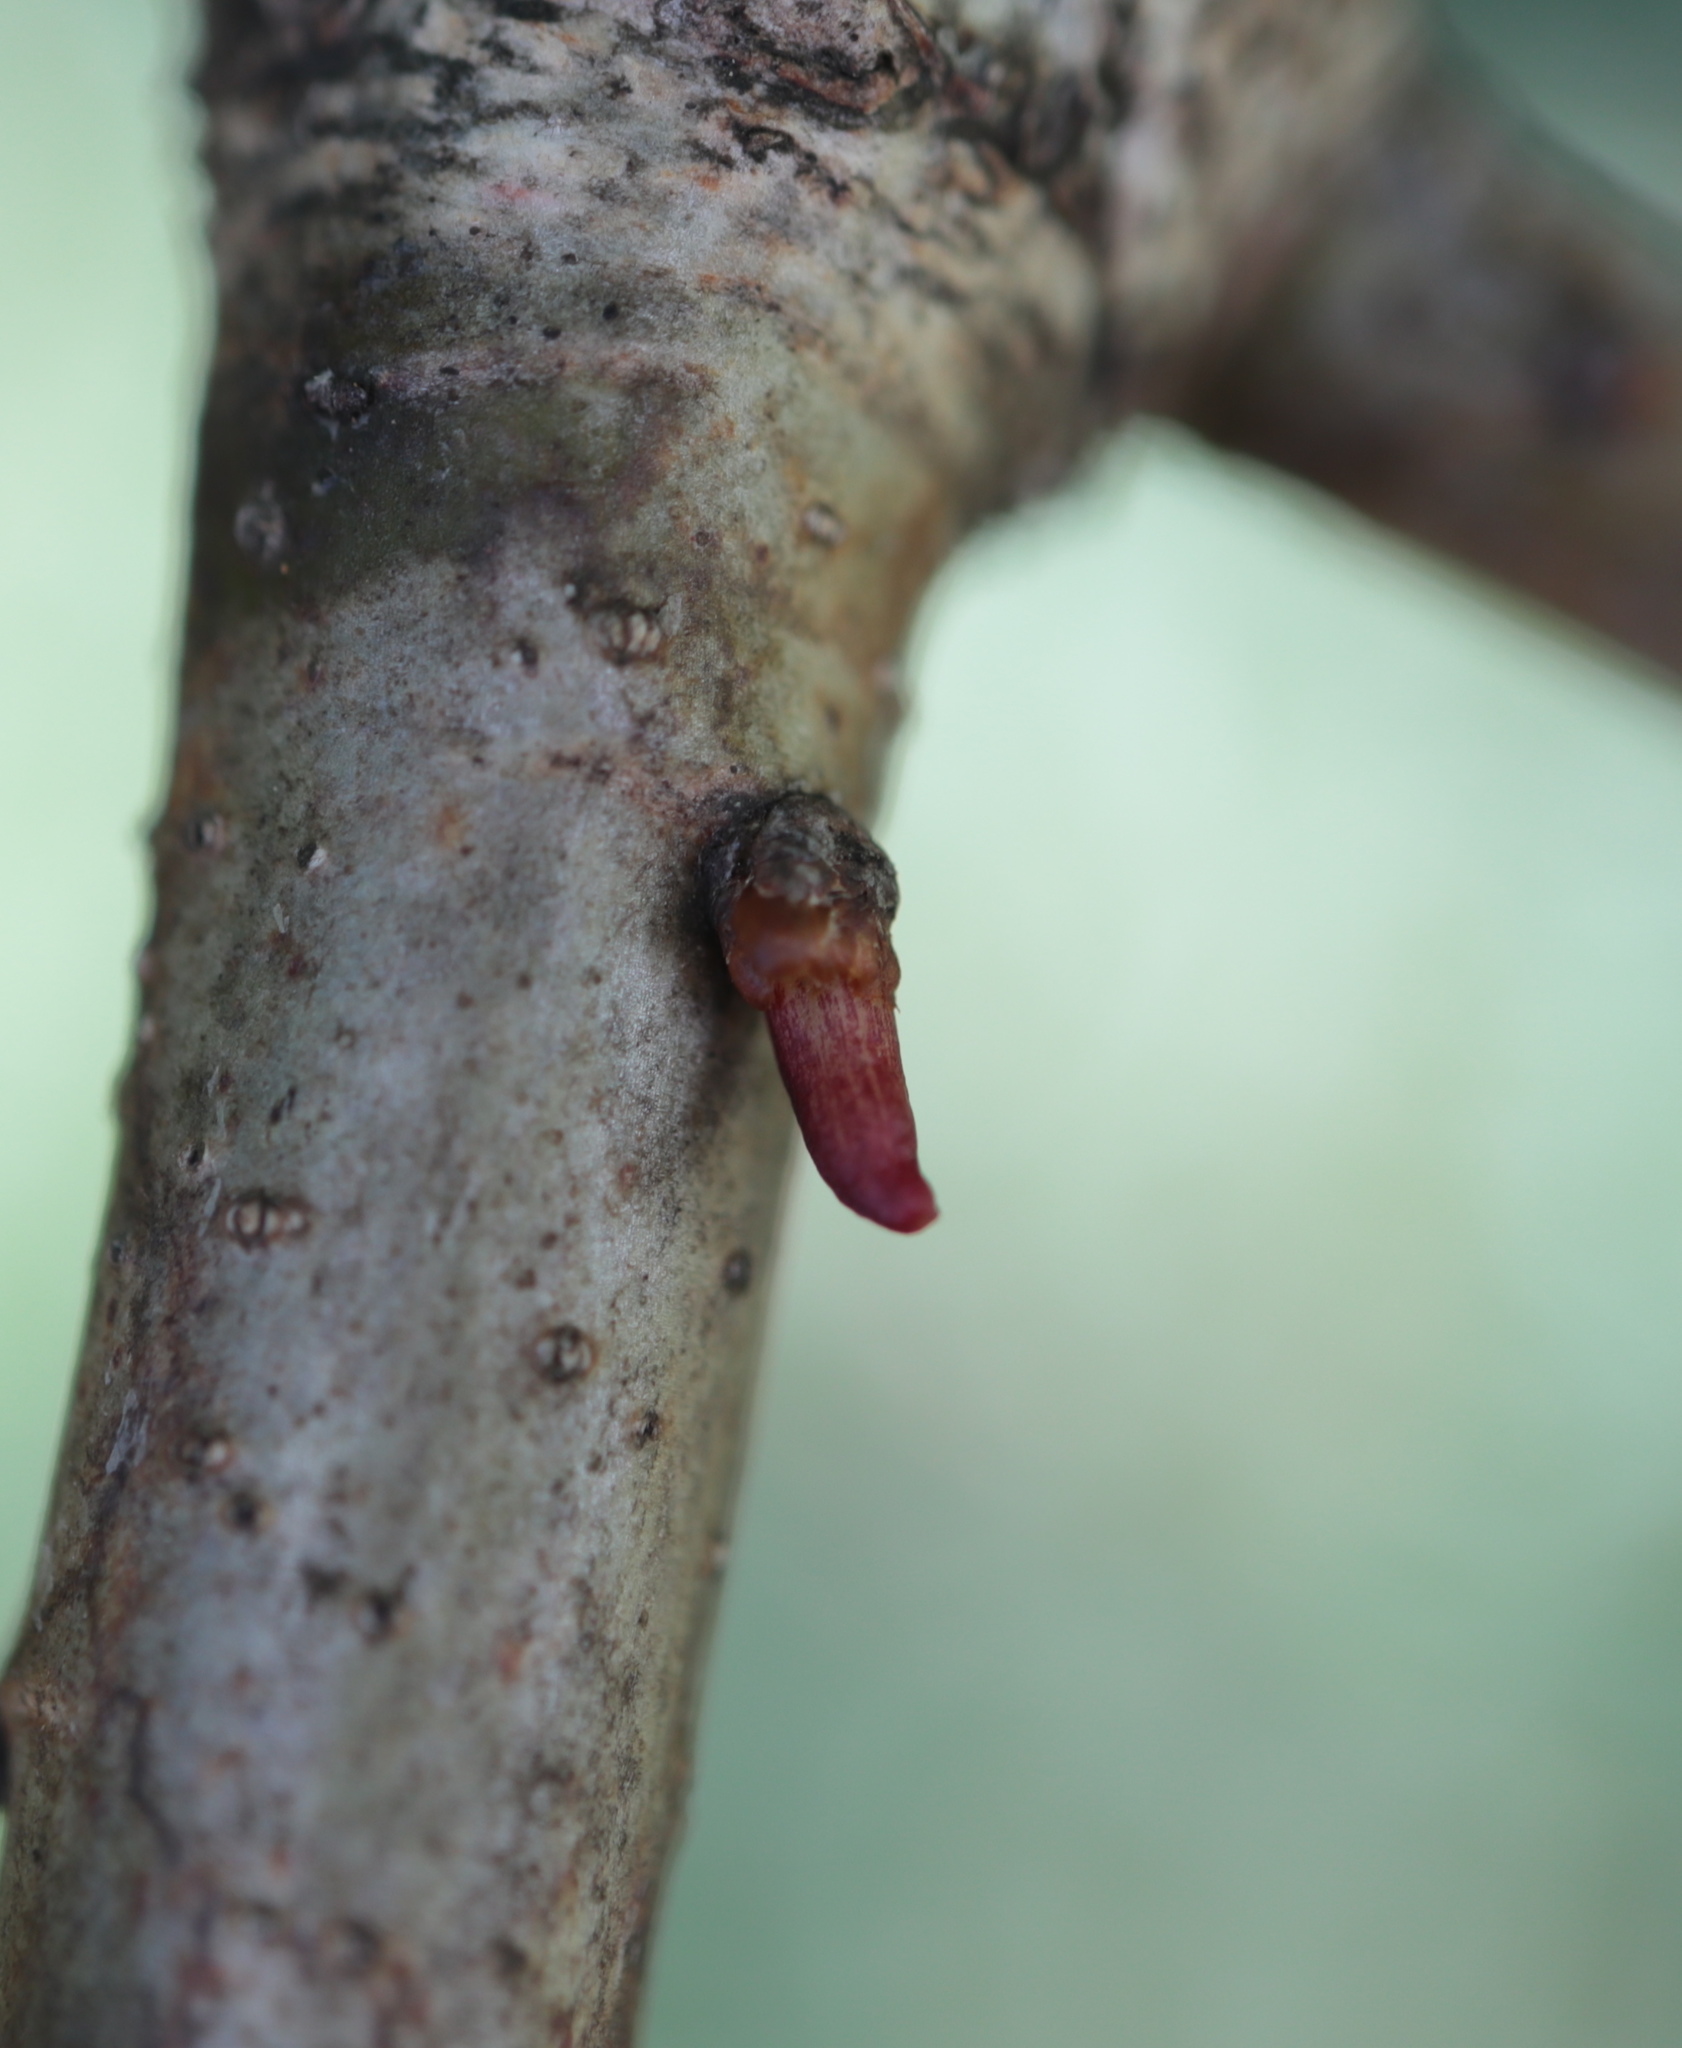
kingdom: Animalia
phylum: Arthropoda
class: Insecta
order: Hymenoptera
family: Cynipidae
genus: Andricus
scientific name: Andricus
